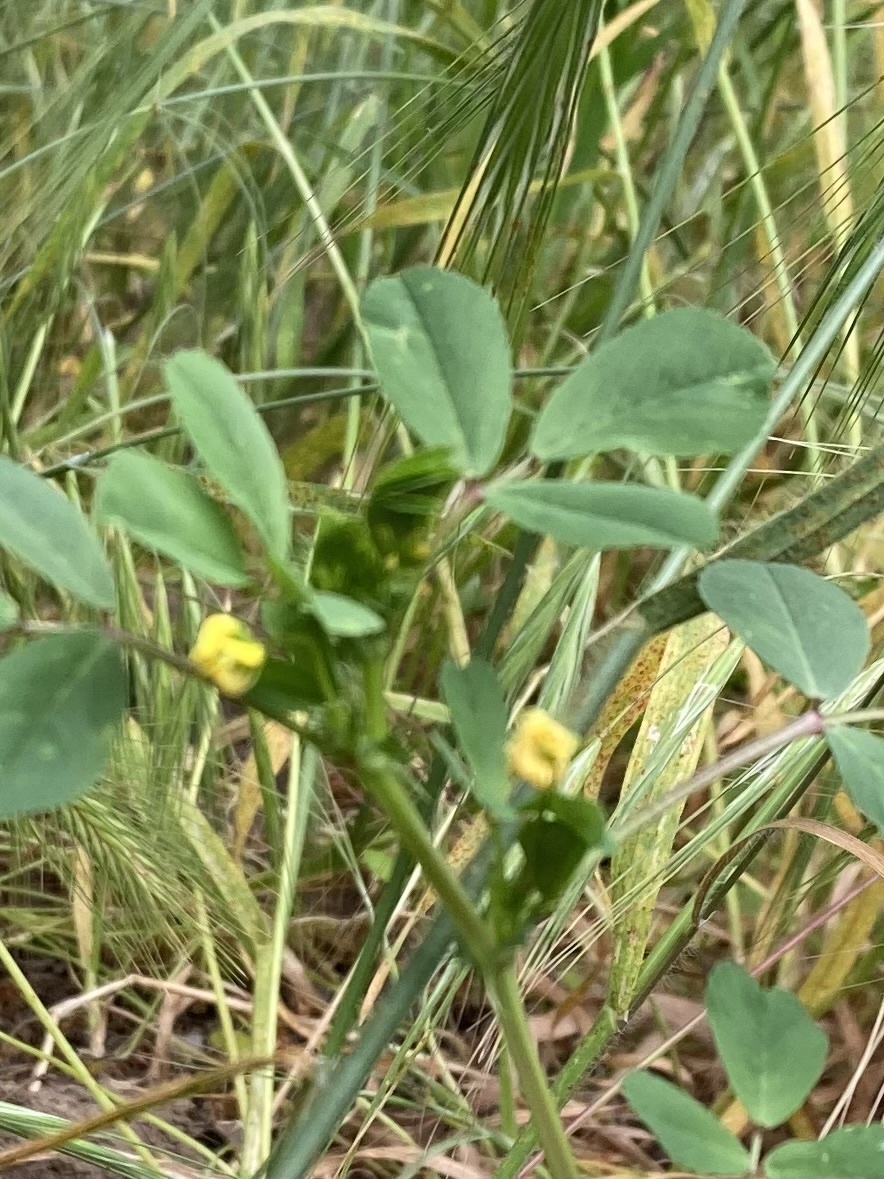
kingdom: Plantae
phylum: Tracheophyta
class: Magnoliopsida
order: Fabales
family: Fabaceae
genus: Medicago
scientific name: Medicago polymorpha
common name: Burclover
